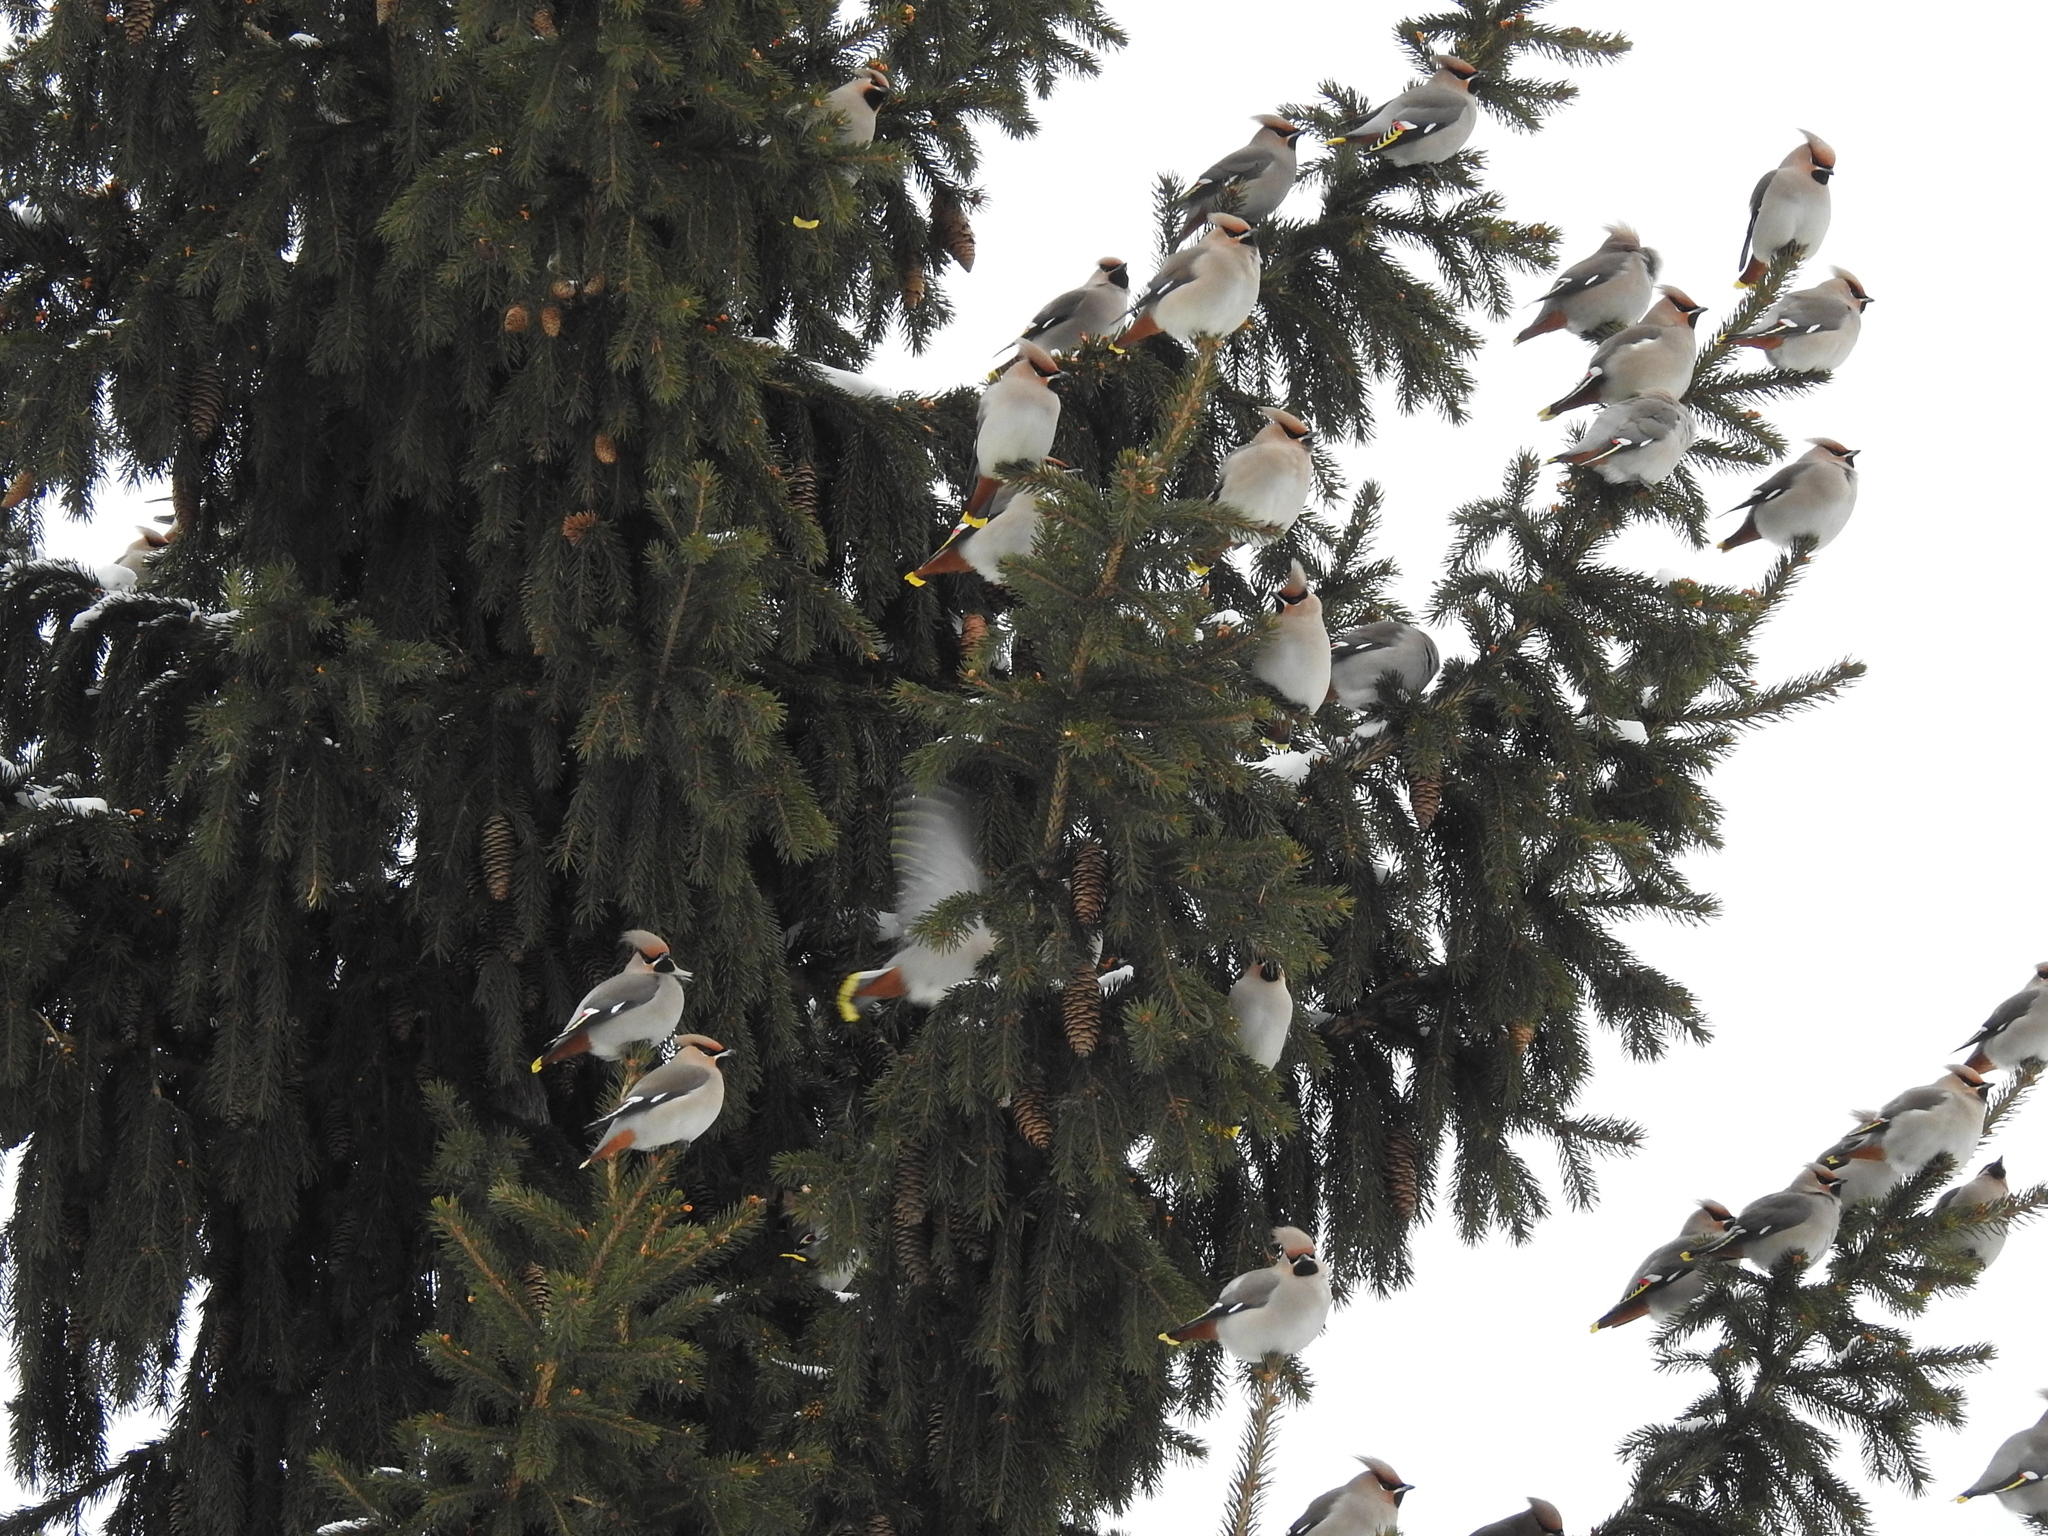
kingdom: Animalia
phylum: Chordata
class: Aves
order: Passeriformes
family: Bombycillidae
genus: Bombycilla
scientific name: Bombycilla garrulus
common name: Bohemian waxwing
